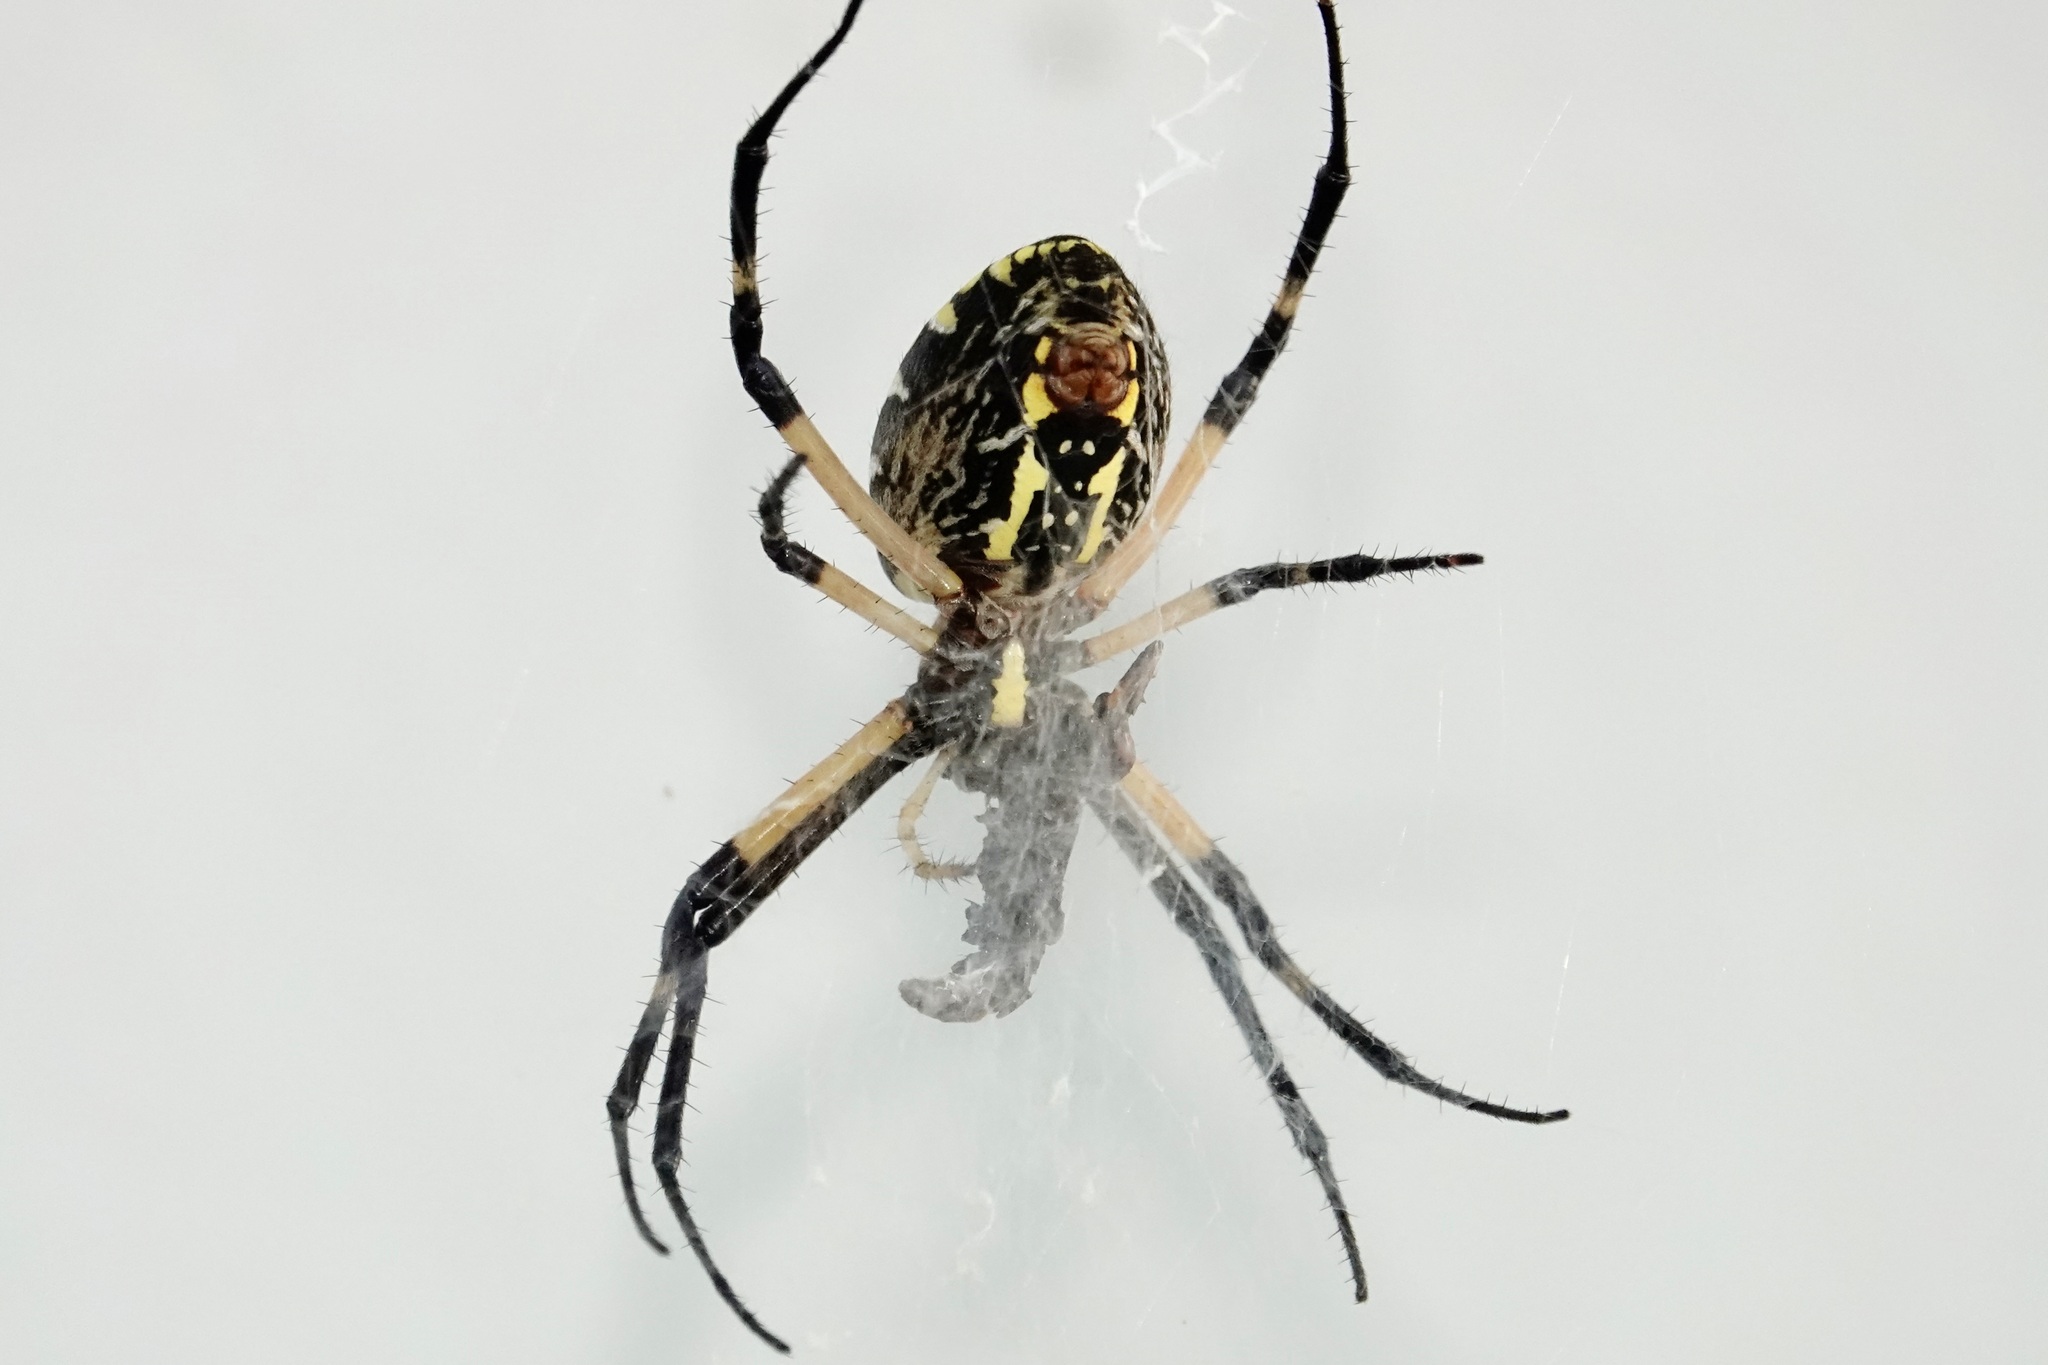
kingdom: Animalia
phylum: Arthropoda
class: Arachnida
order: Araneae
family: Araneidae
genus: Argiope
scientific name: Argiope aurantia
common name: Orb weavers
